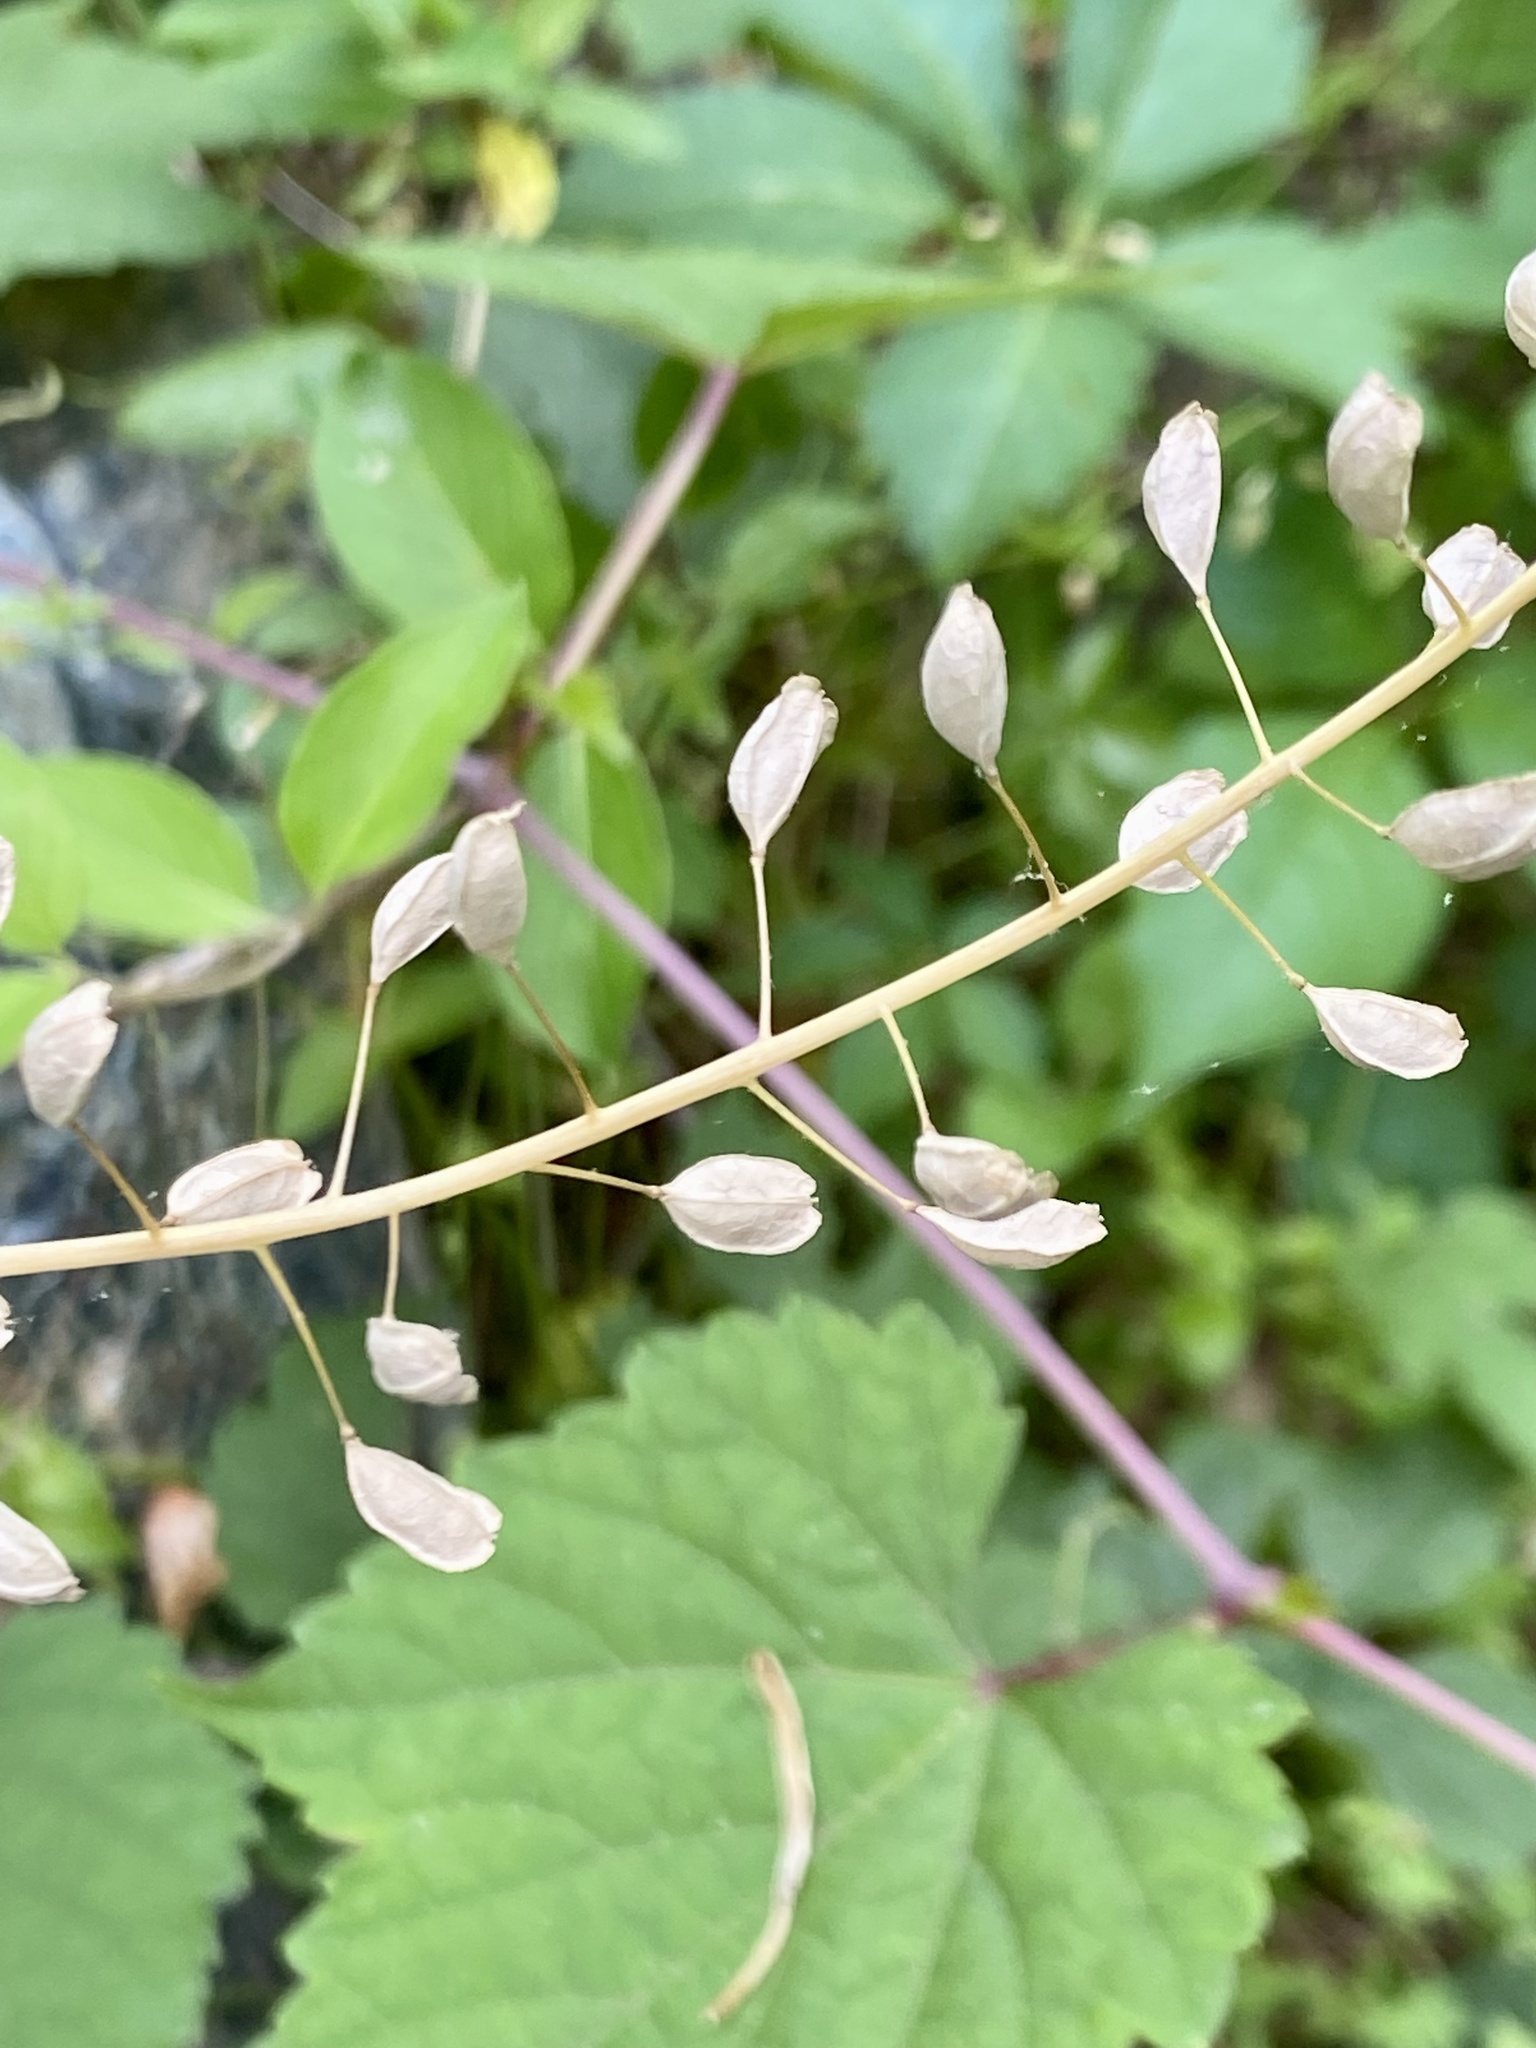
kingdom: Plantae
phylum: Tracheophyta
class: Magnoliopsida
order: Brassicales
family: Brassicaceae
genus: Mummenhoffia
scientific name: Mummenhoffia alliacea
